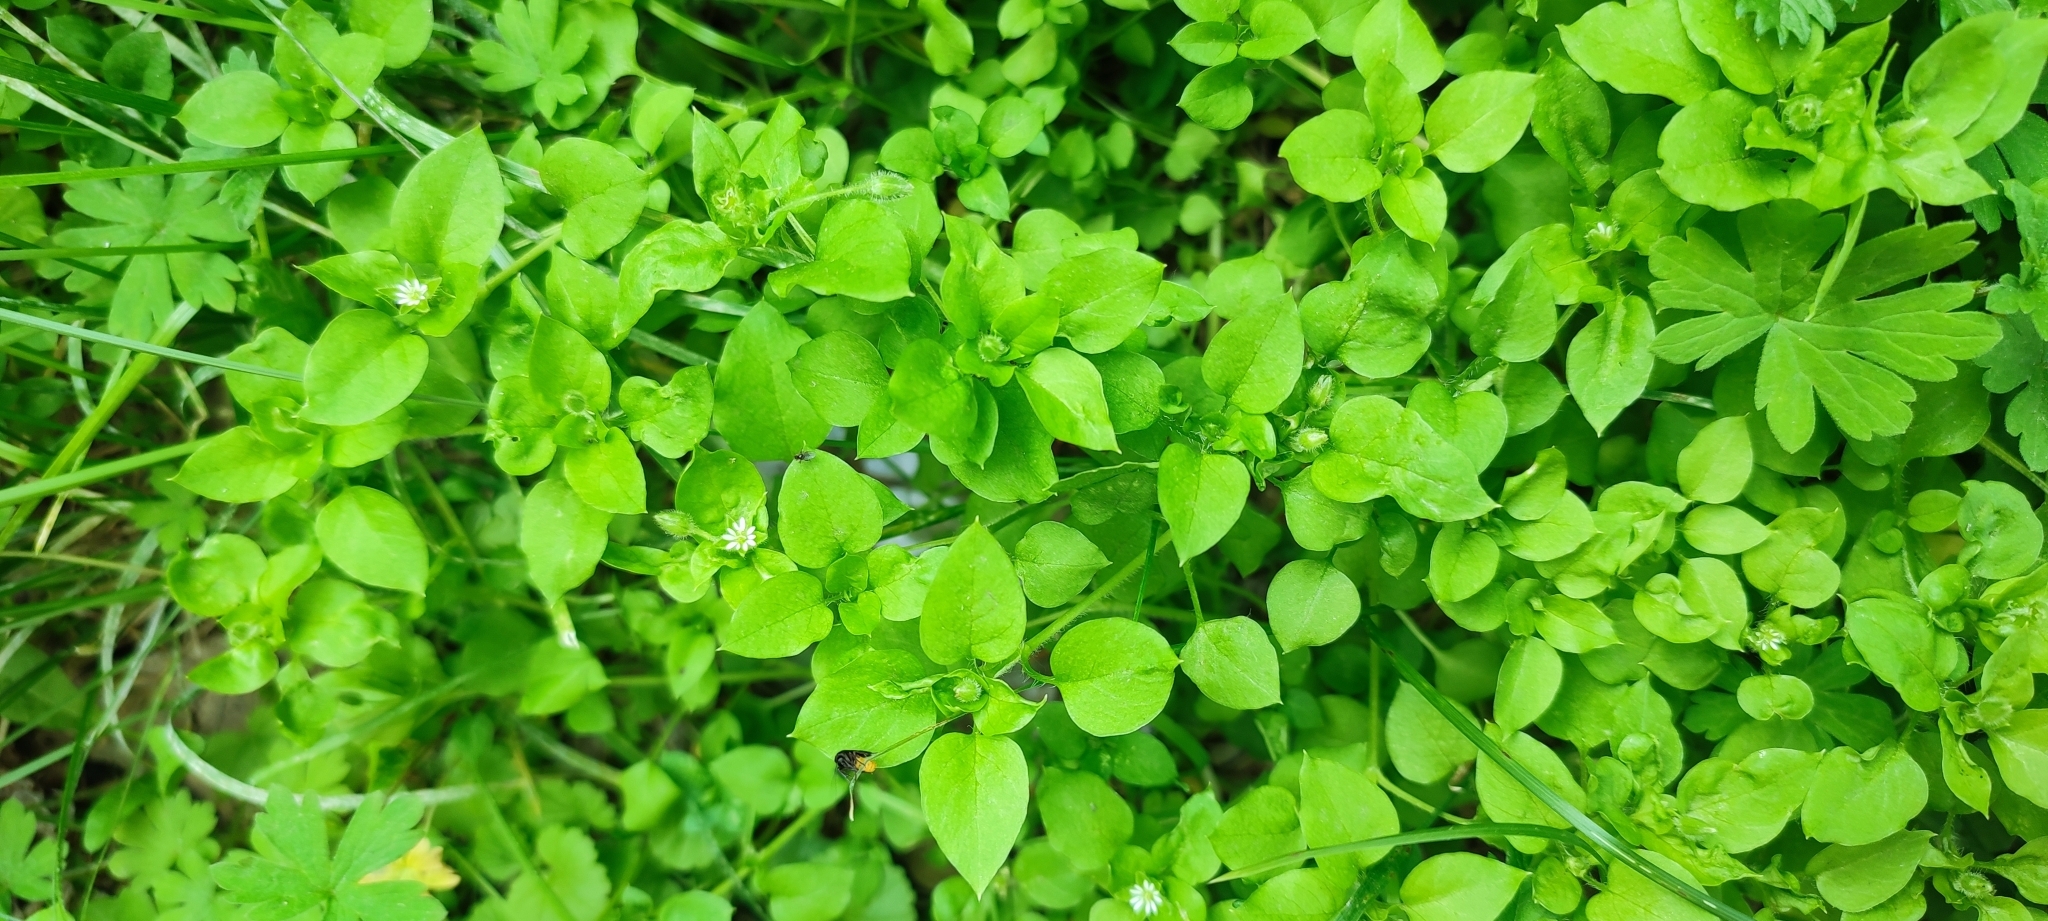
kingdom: Plantae
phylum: Tracheophyta
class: Magnoliopsida
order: Caryophyllales
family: Caryophyllaceae
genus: Stellaria
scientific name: Stellaria media
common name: Common chickweed
